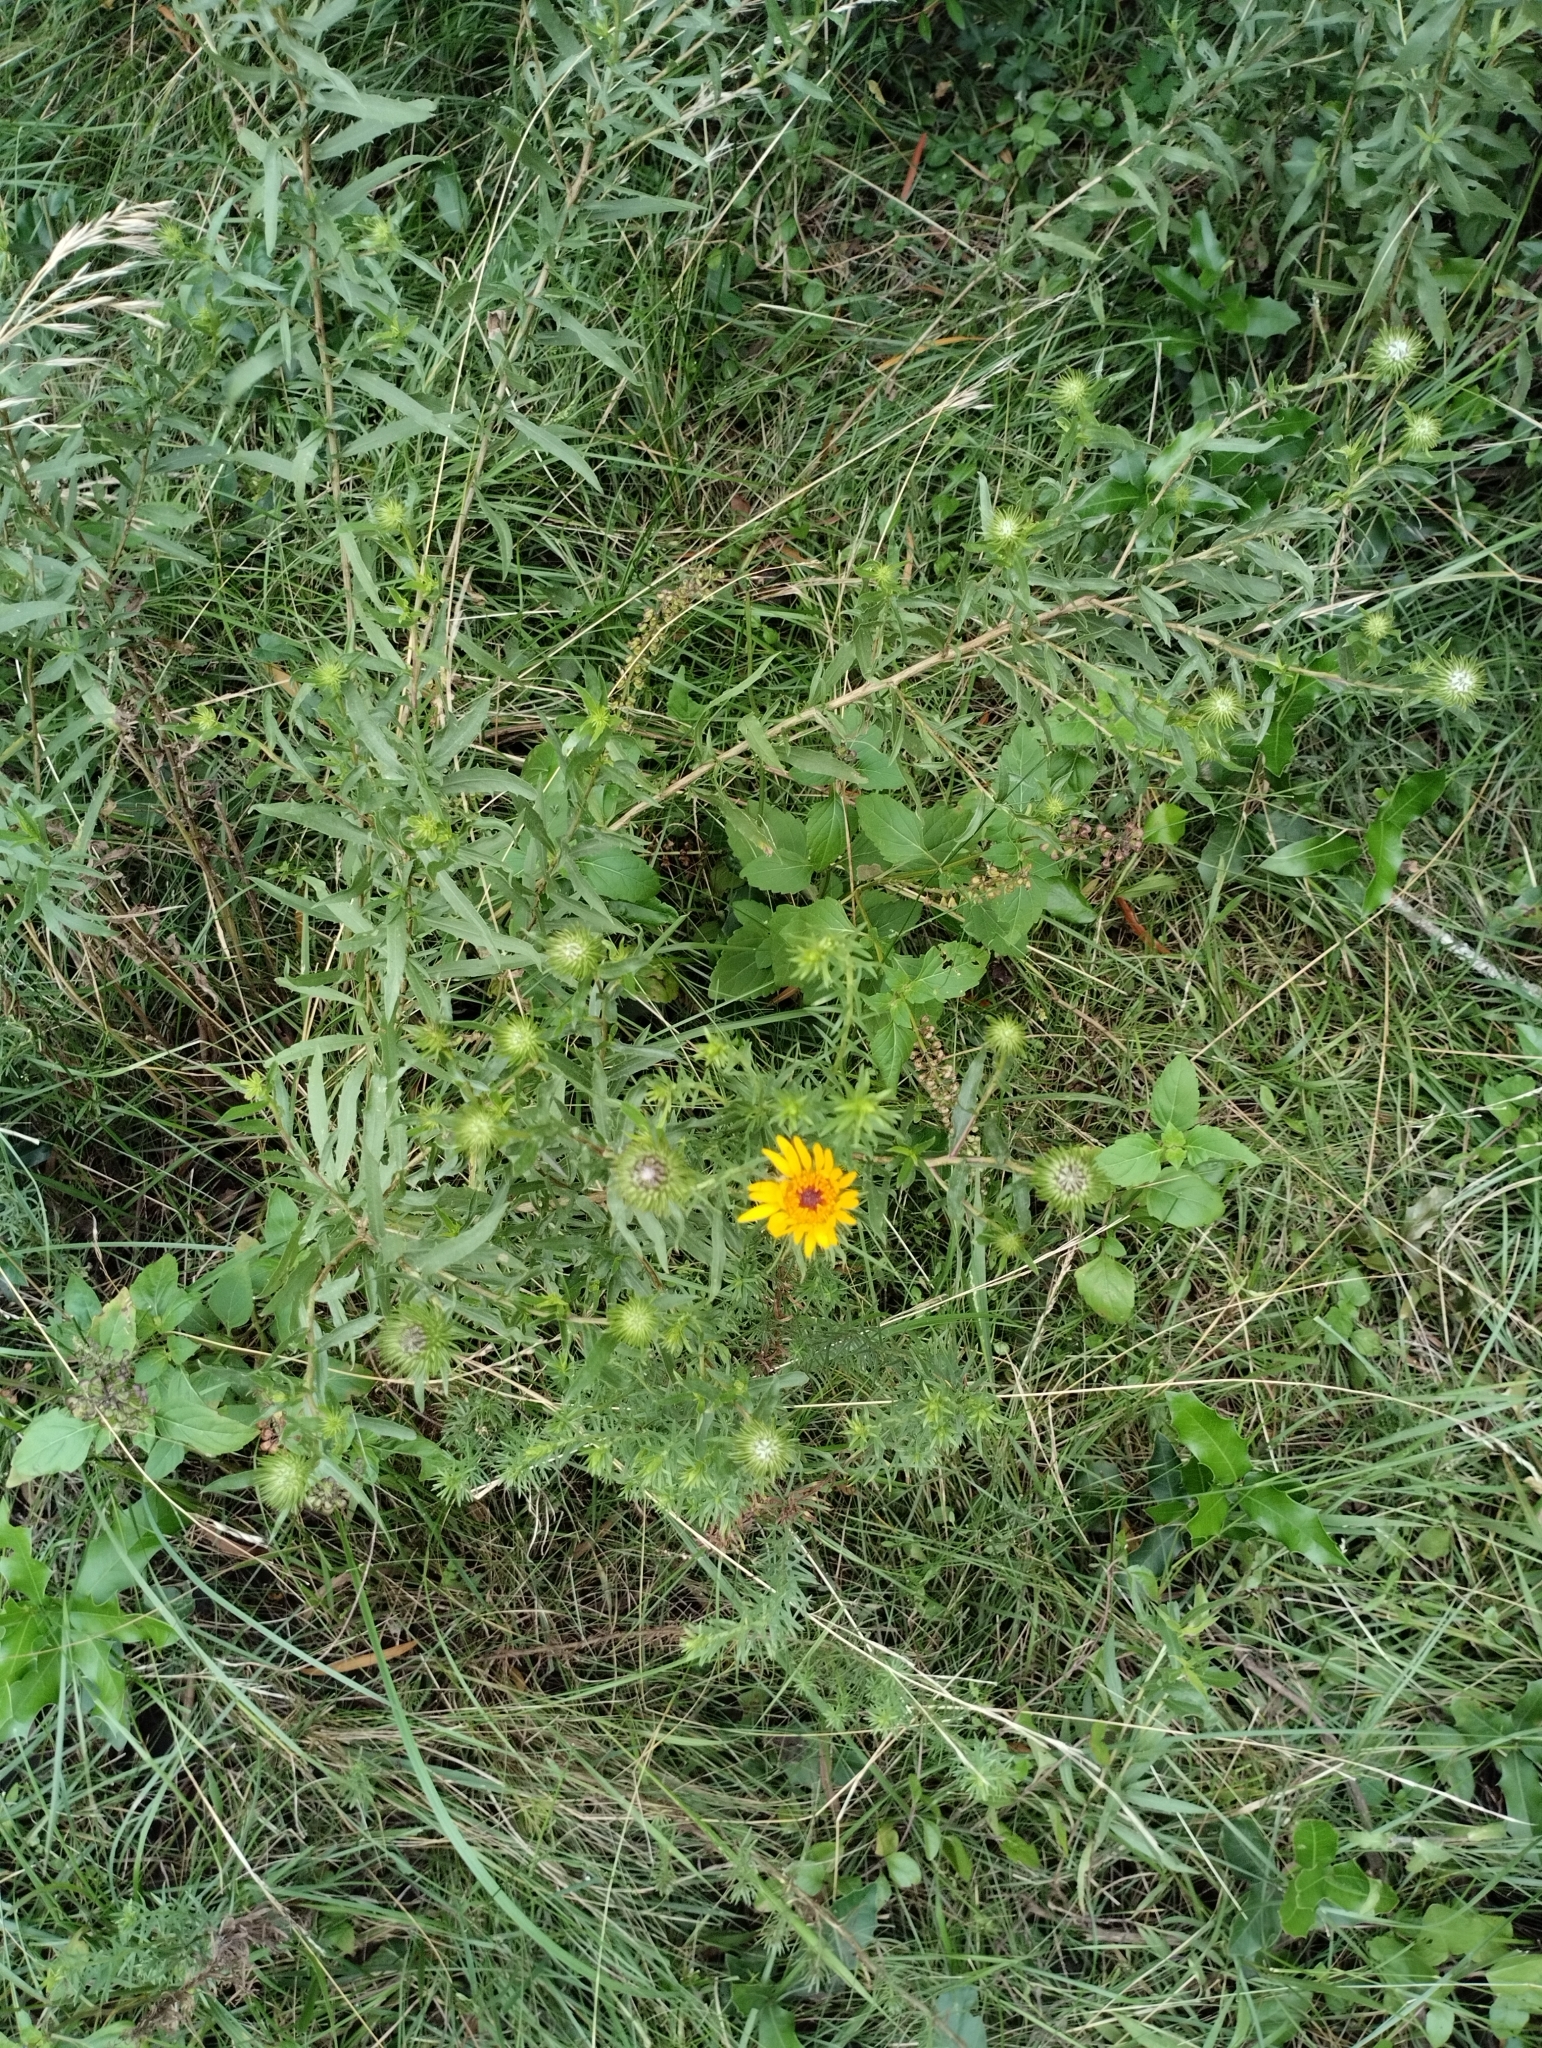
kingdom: Plantae
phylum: Tracheophyta
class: Magnoliopsida
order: Asterales
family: Asteraceae
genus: Grindelia
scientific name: Grindelia pulchella
